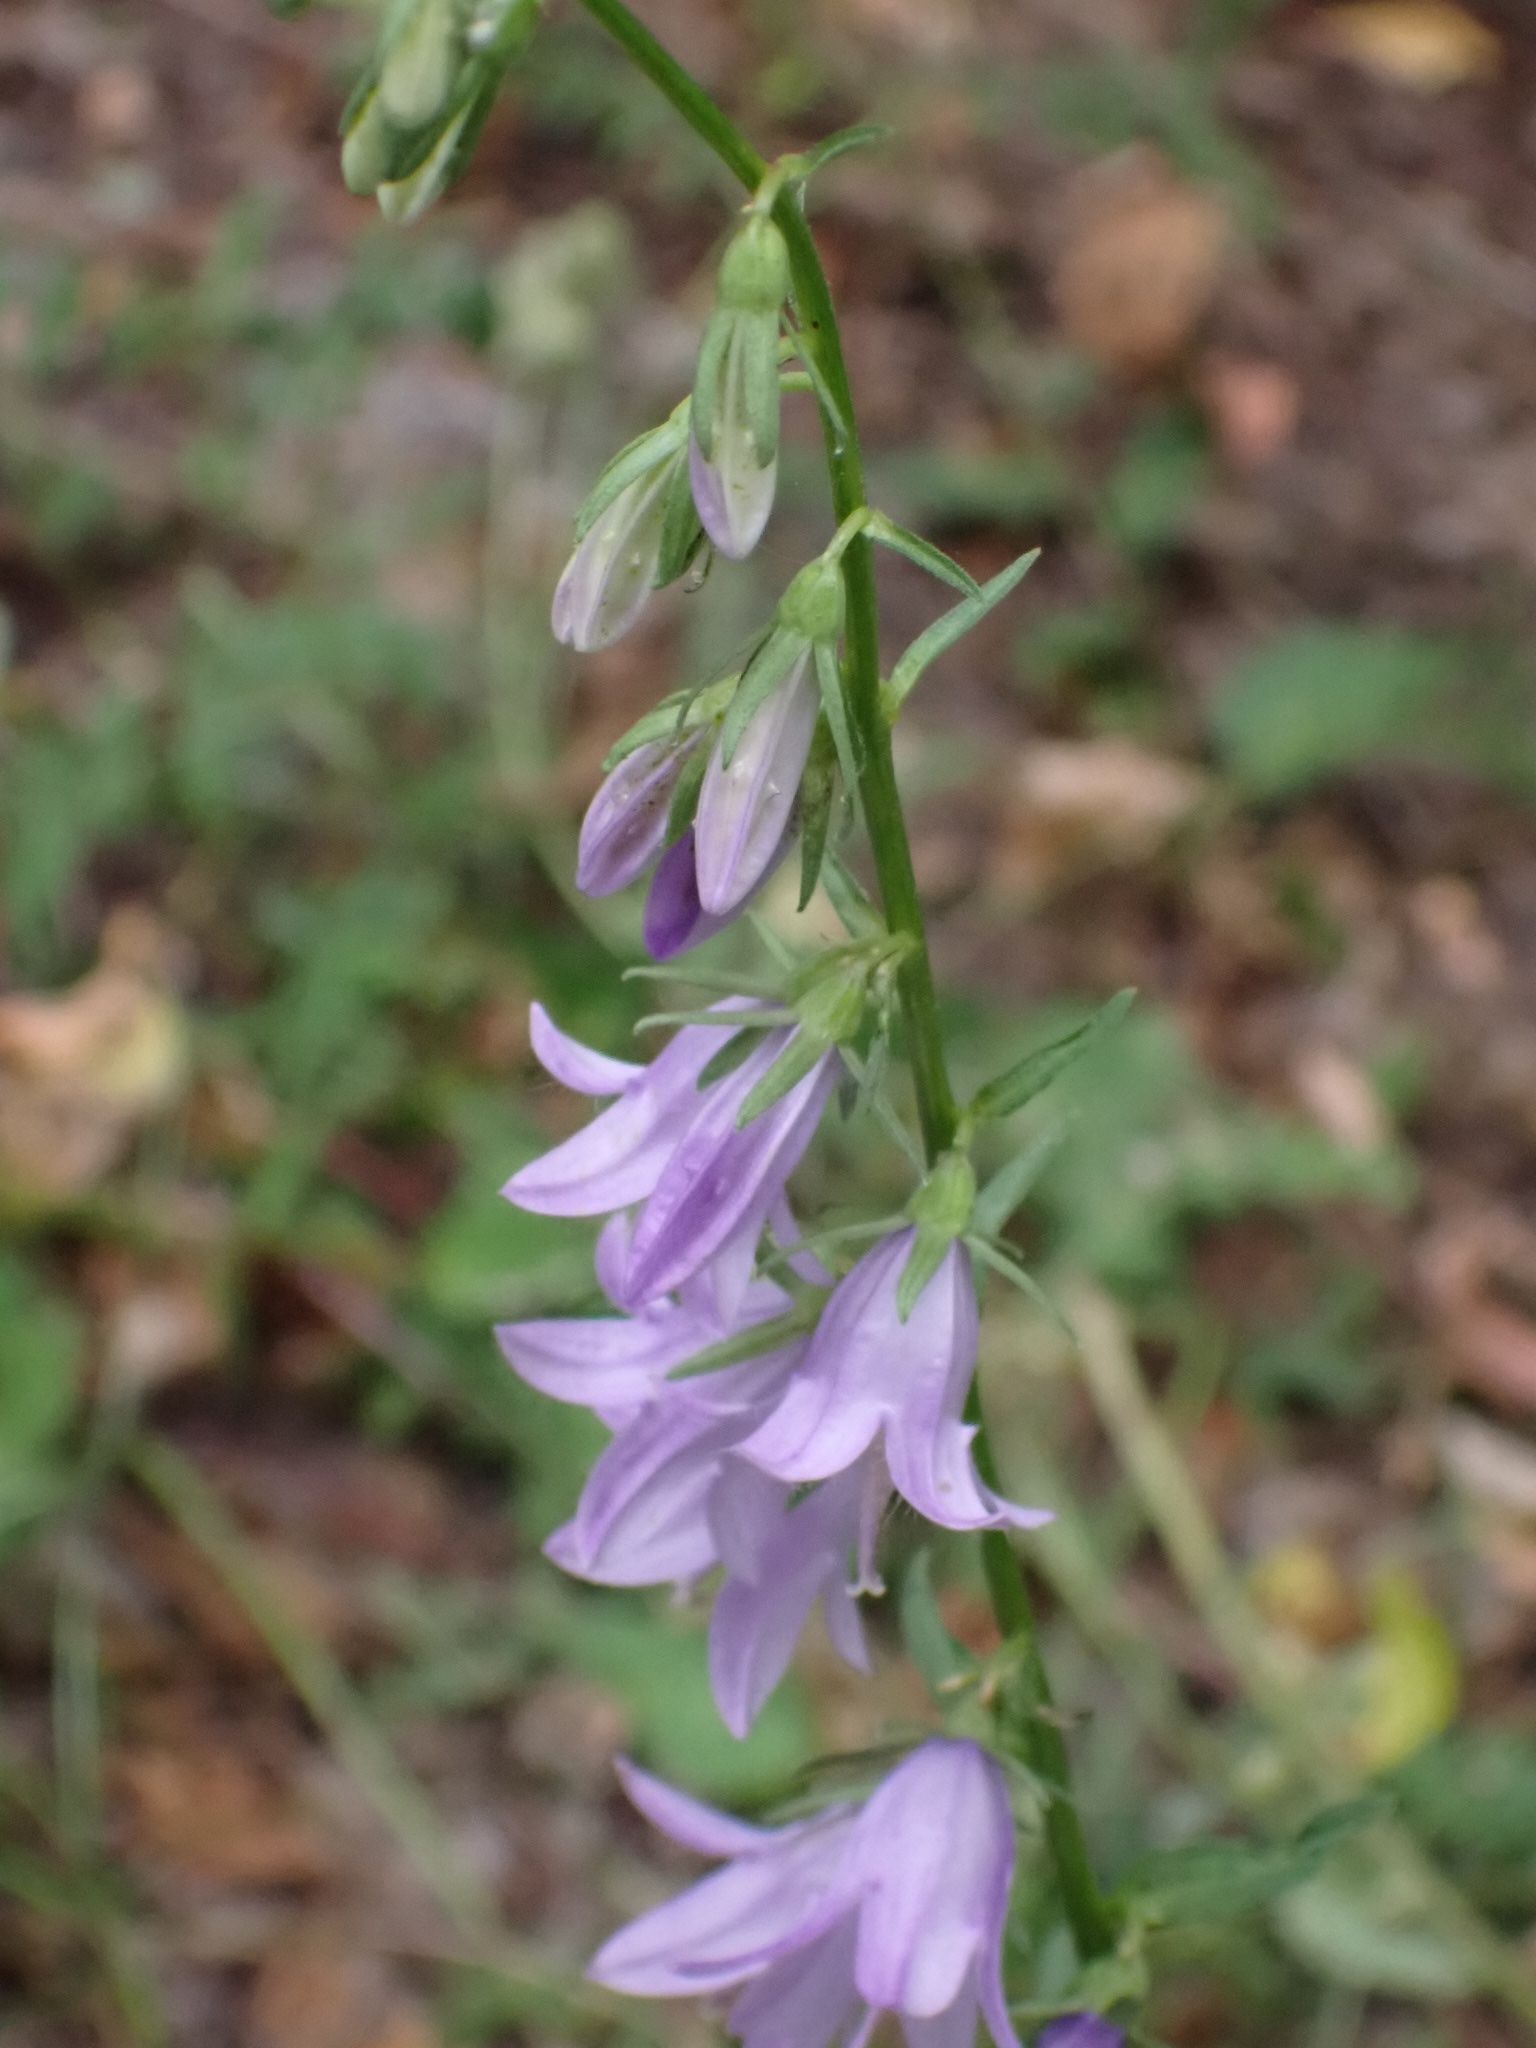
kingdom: Plantae
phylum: Tracheophyta
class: Magnoliopsida
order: Asterales
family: Campanulaceae
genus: Campanula
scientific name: Campanula rapunculoides
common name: Creeping bellflower
